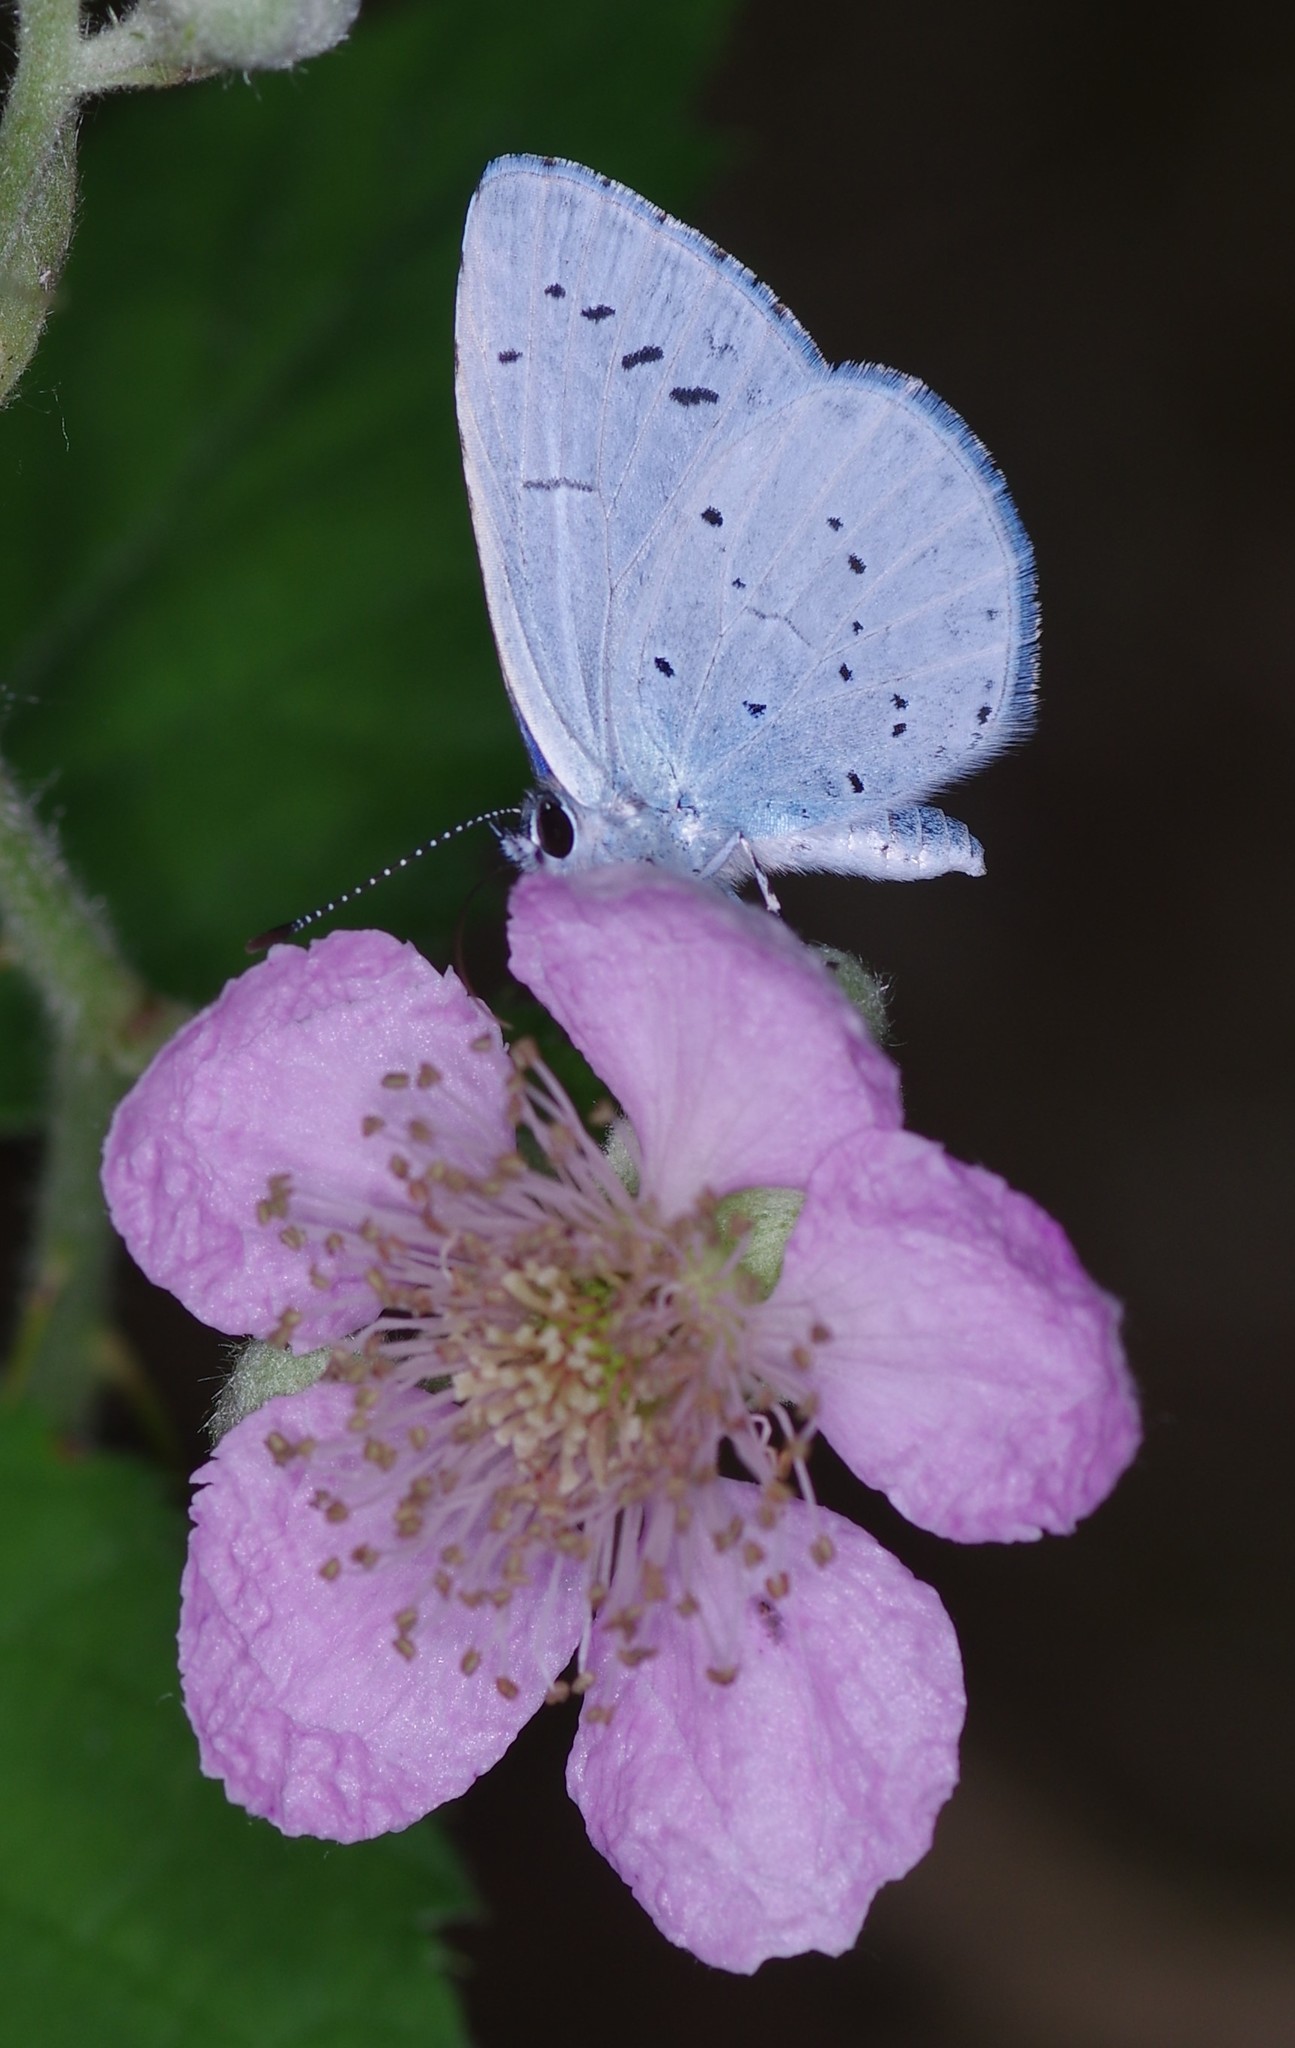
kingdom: Animalia
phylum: Arthropoda
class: Insecta
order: Lepidoptera
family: Lycaenidae
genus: Celastrina
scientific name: Celastrina argiolus
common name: Holly blue
